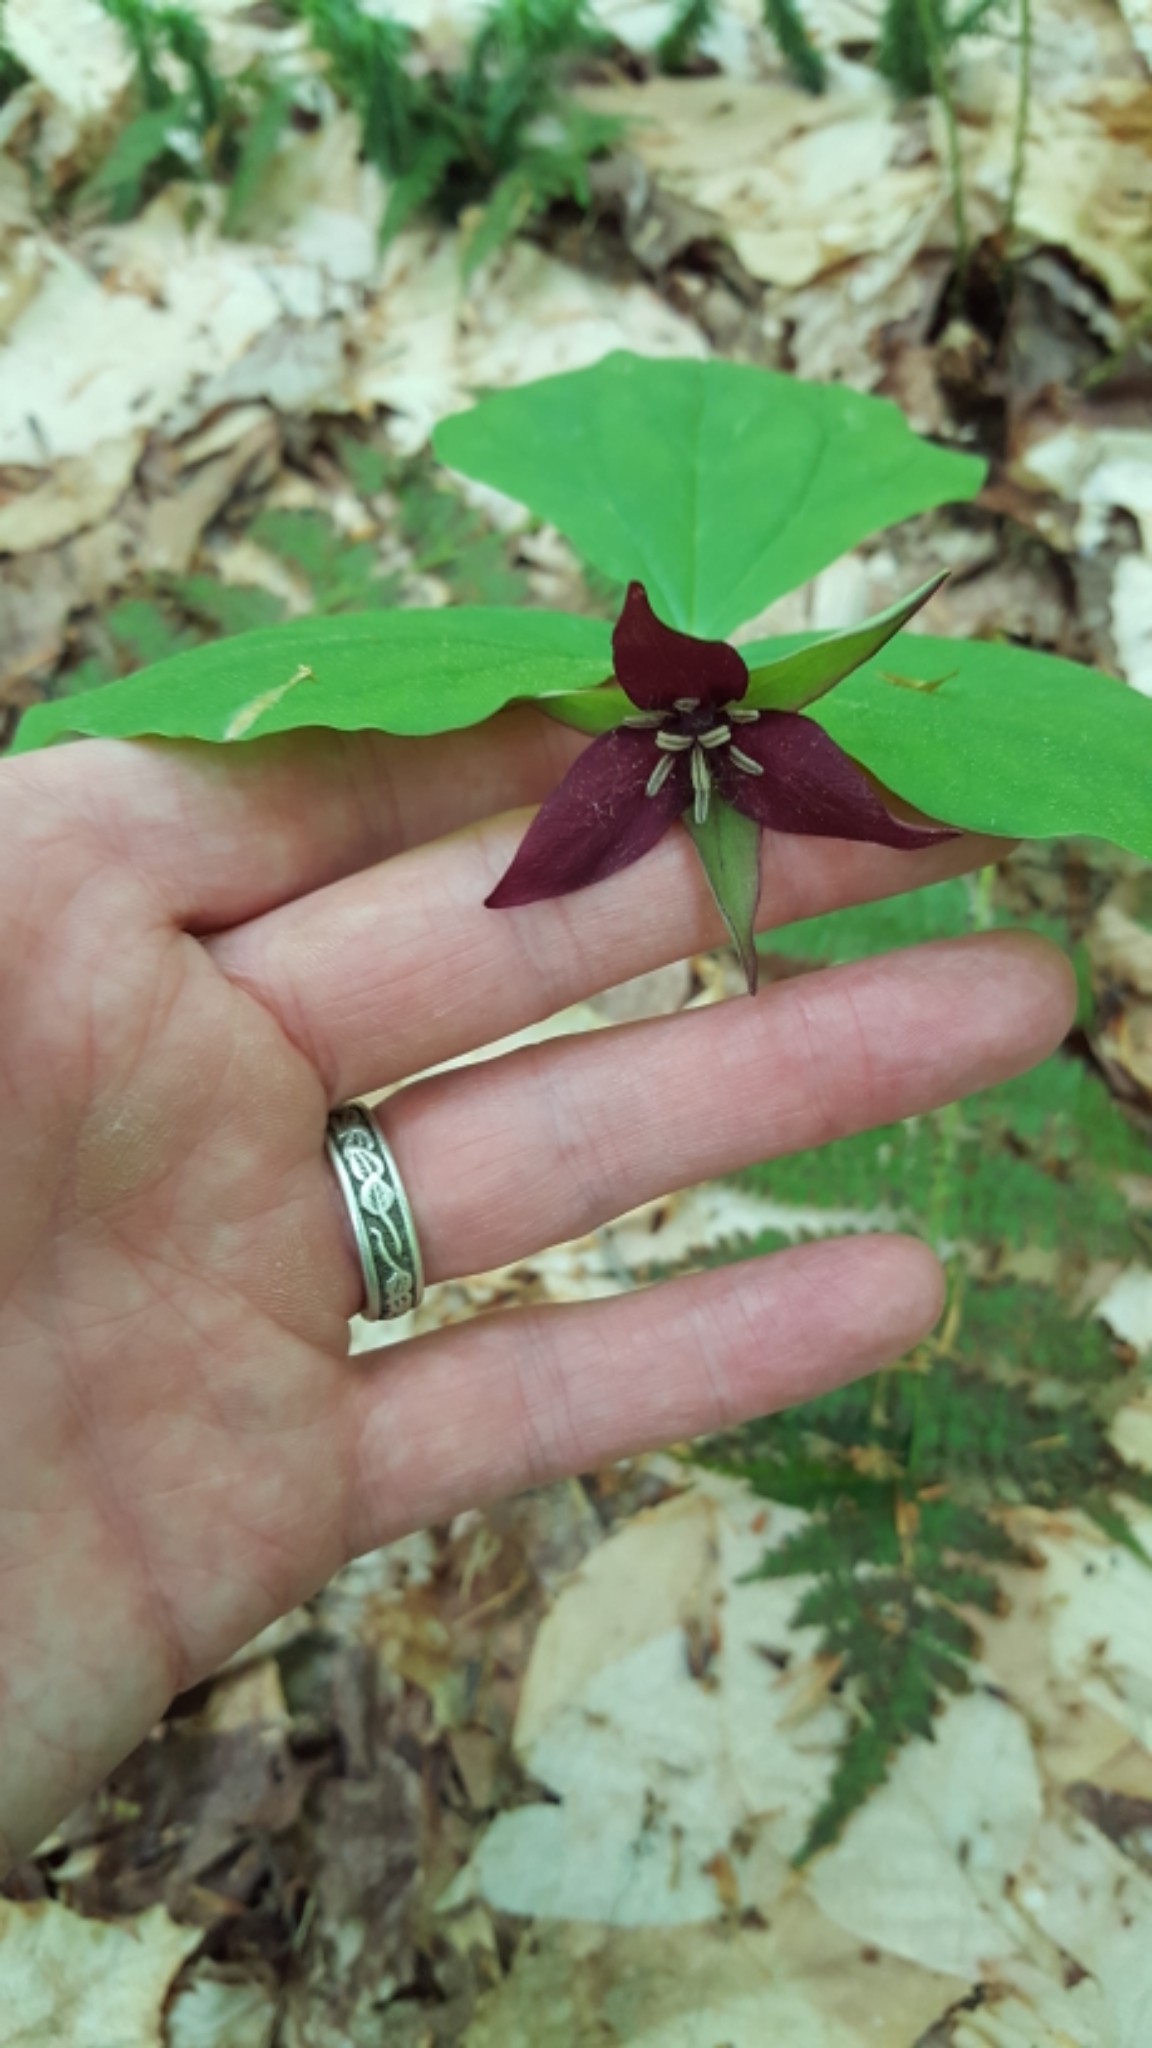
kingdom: Plantae
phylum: Tracheophyta
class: Liliopsida
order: Liliales
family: Melanthiaceae
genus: Trillium
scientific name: Trillium erectum
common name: Purple trillium
